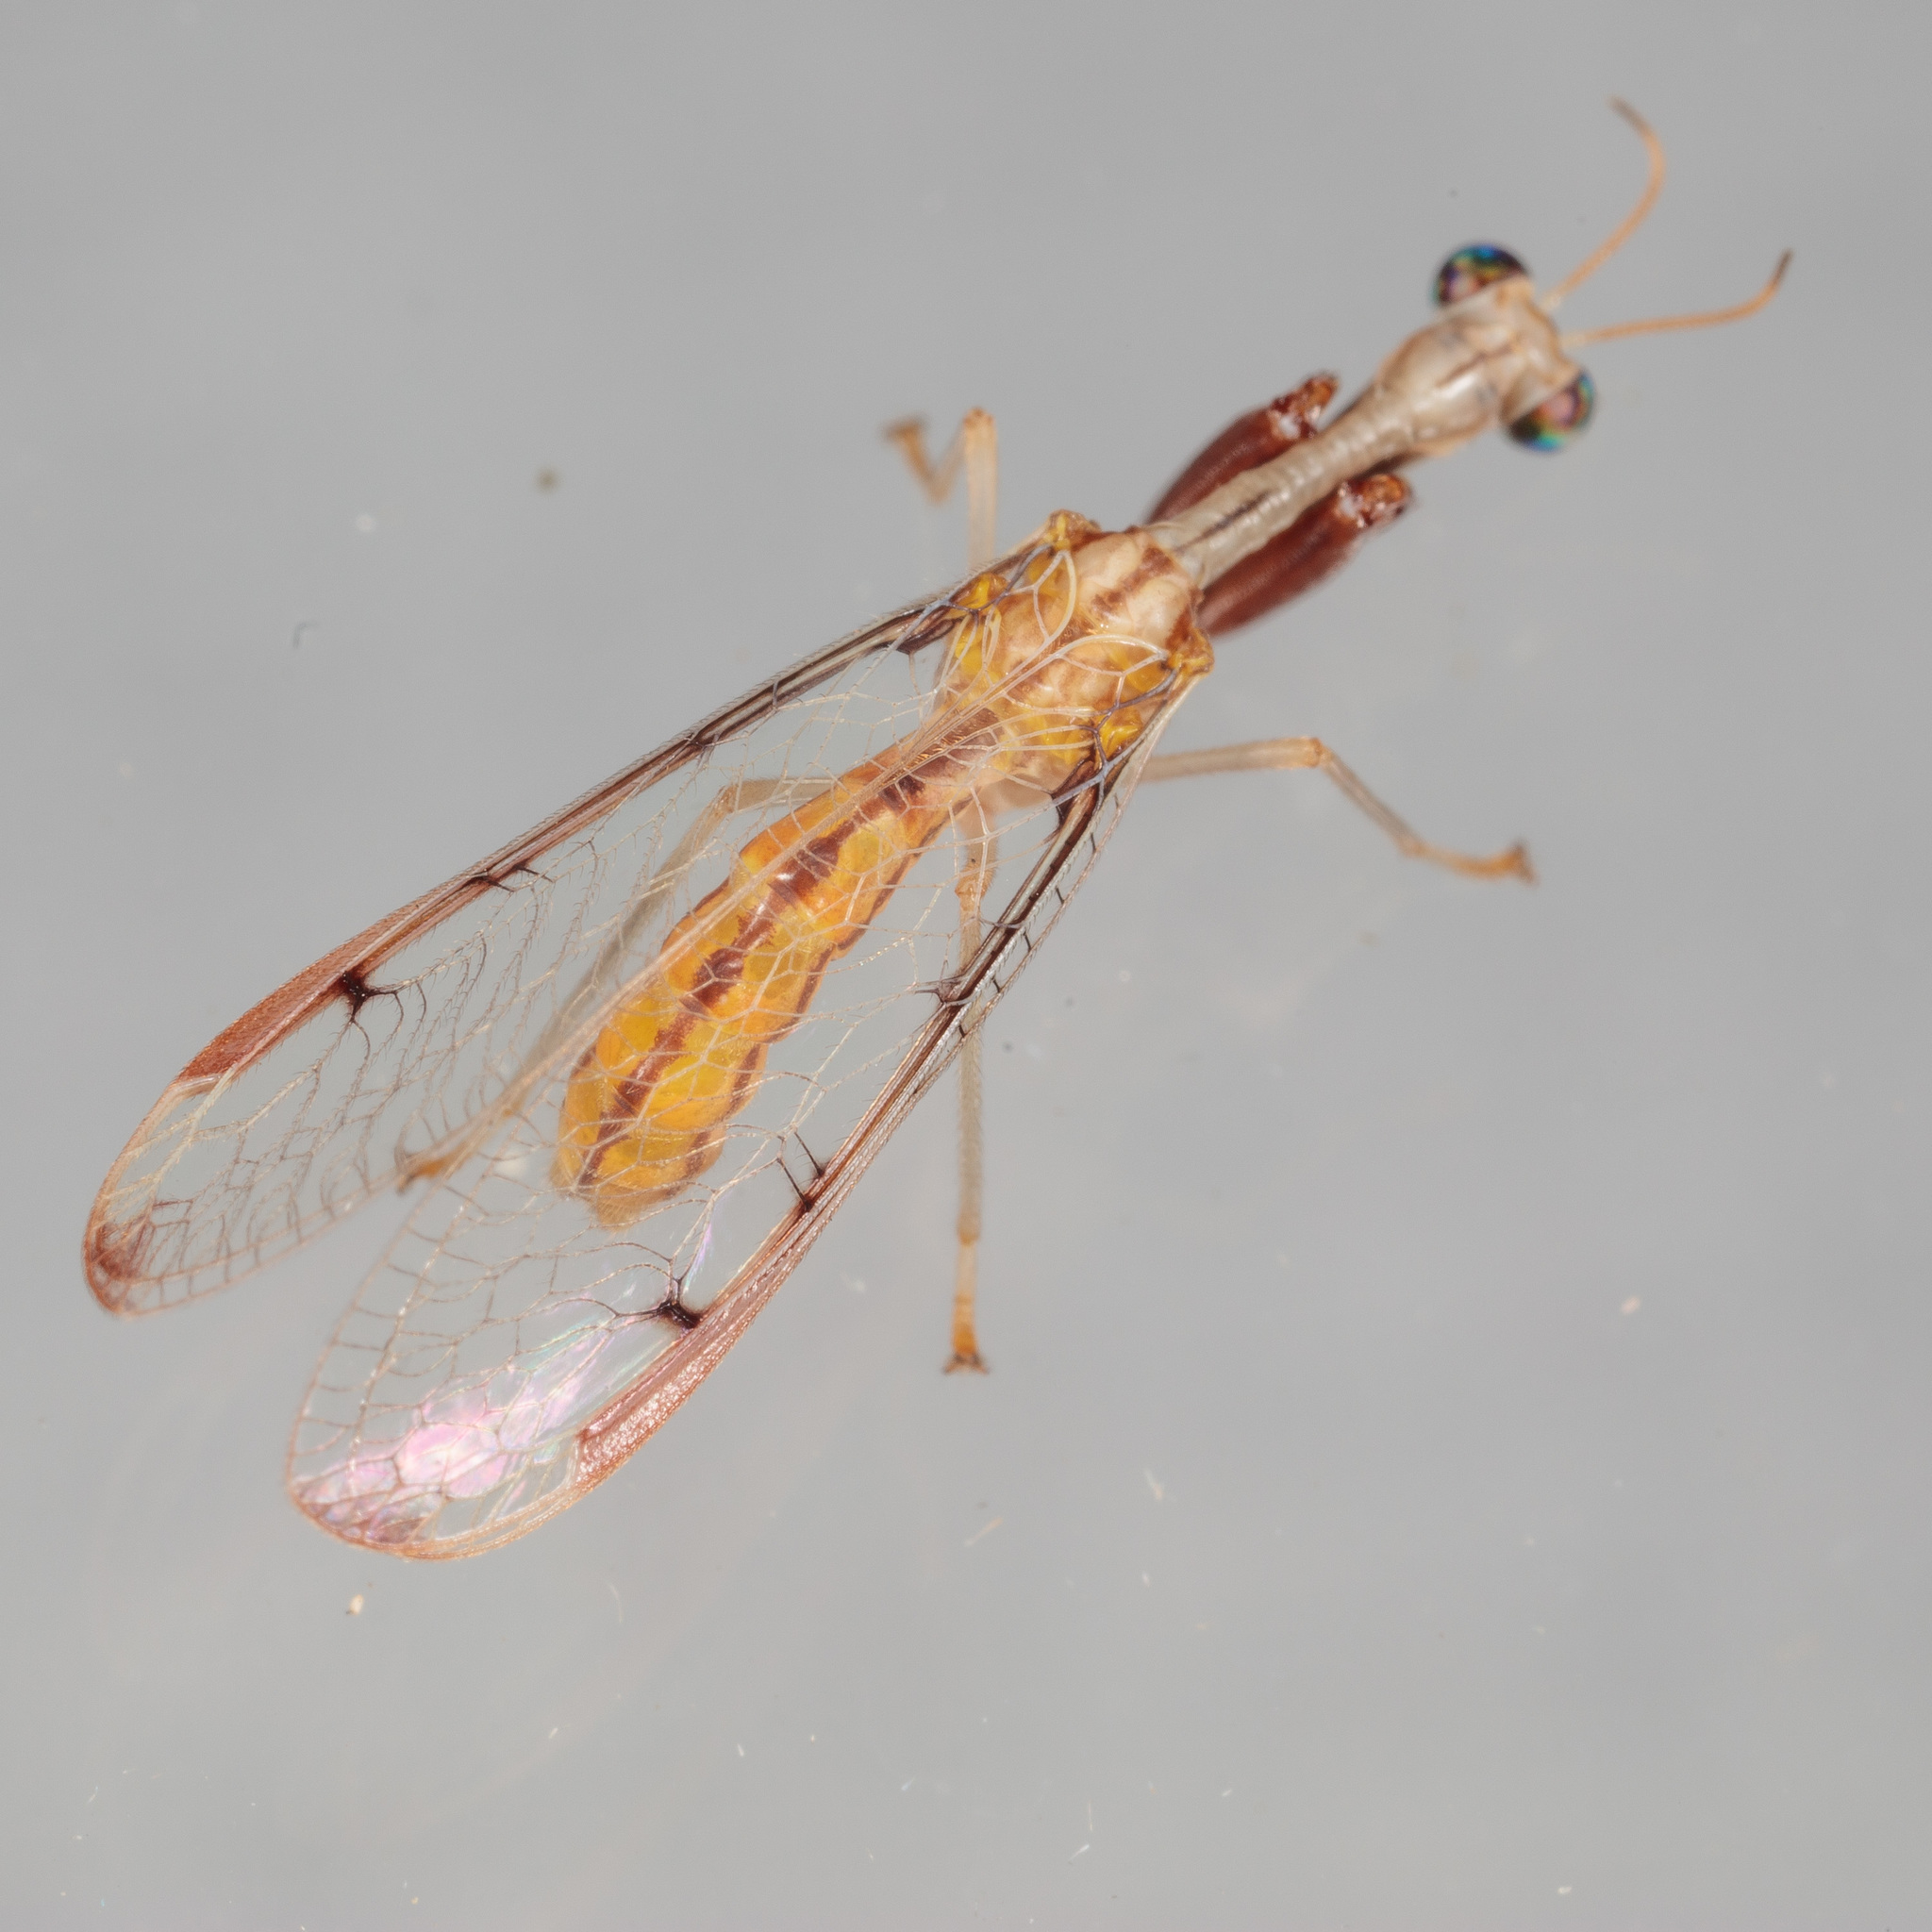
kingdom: Animalia
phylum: Arthropoda
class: Insecta
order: Neuroptera
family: Mantispidae
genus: Dicromantispa
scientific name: Dicromantispa interrupta
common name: Four-spotted mantidfly
